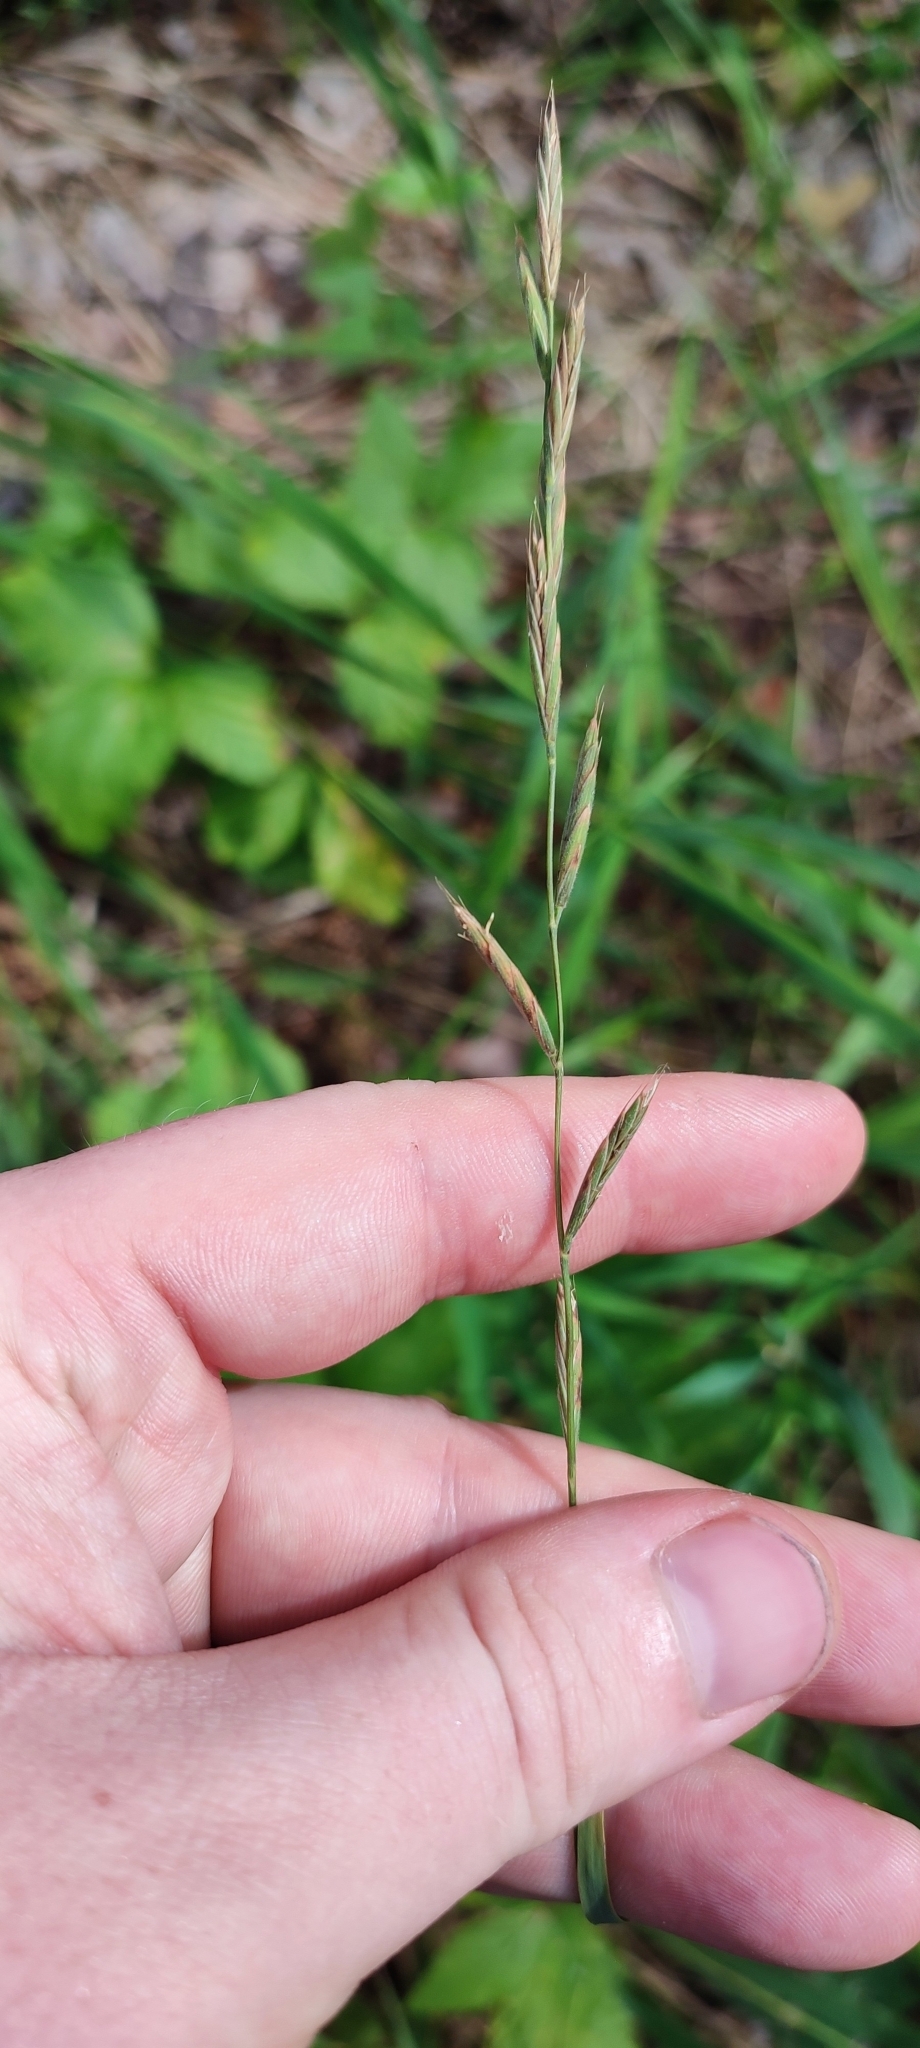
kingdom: Plantae
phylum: Tracheophyta
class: Liliopsida
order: Poales
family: Poaceae
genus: Brachypodium
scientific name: Brachypodium pinnatum
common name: Tor grass
